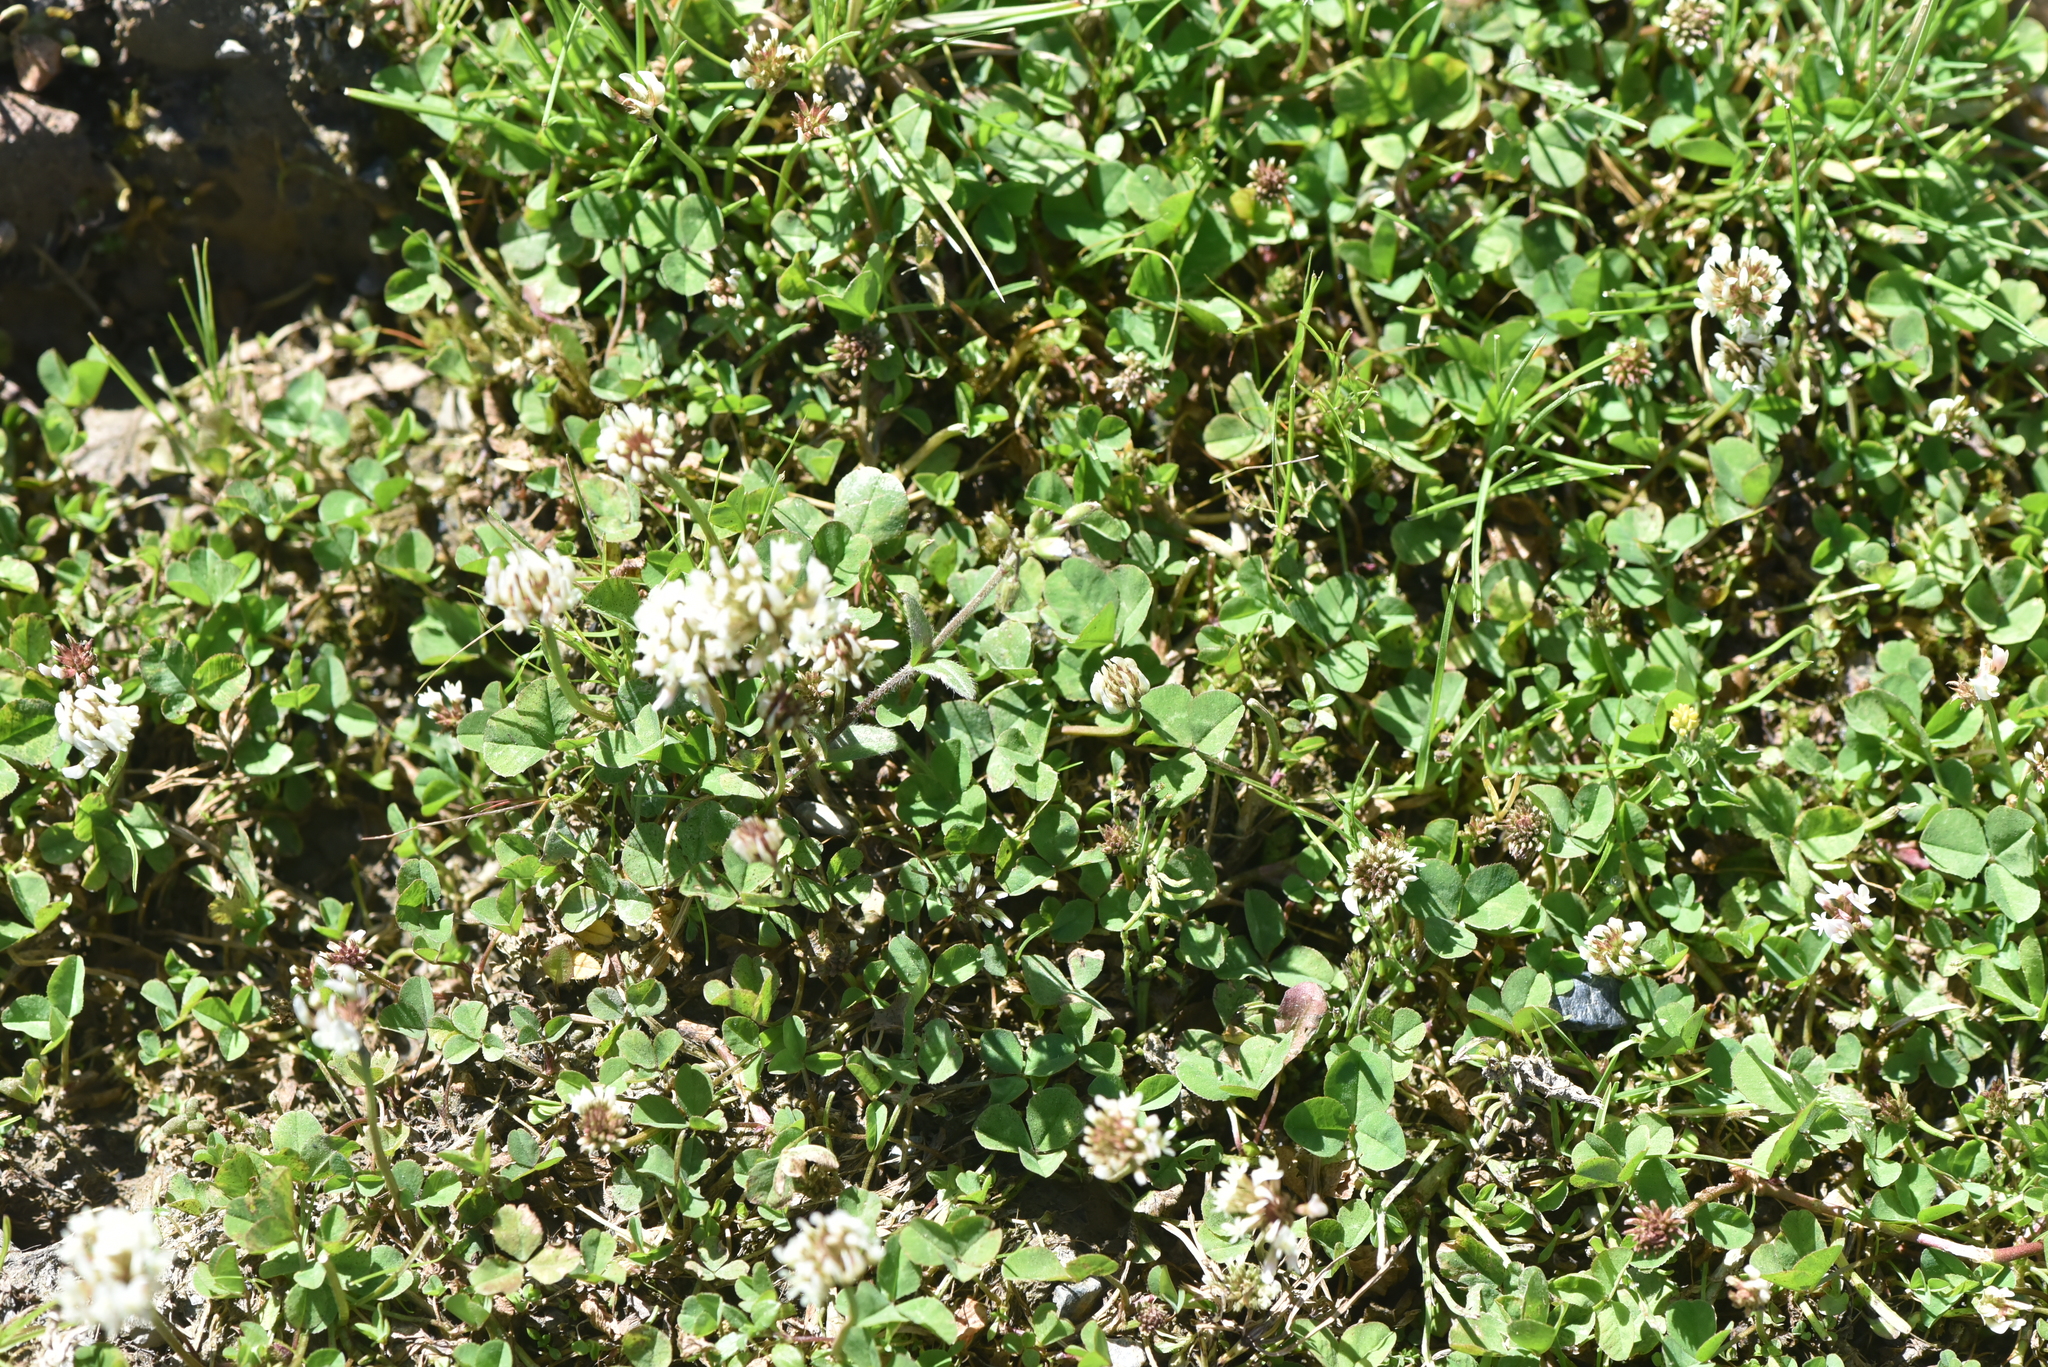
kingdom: Plantae
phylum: Tracheophyta
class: Magnoliopsida
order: Fabales
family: Fabaceae
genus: Trifolium
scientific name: Trifolium repens
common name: White clover
